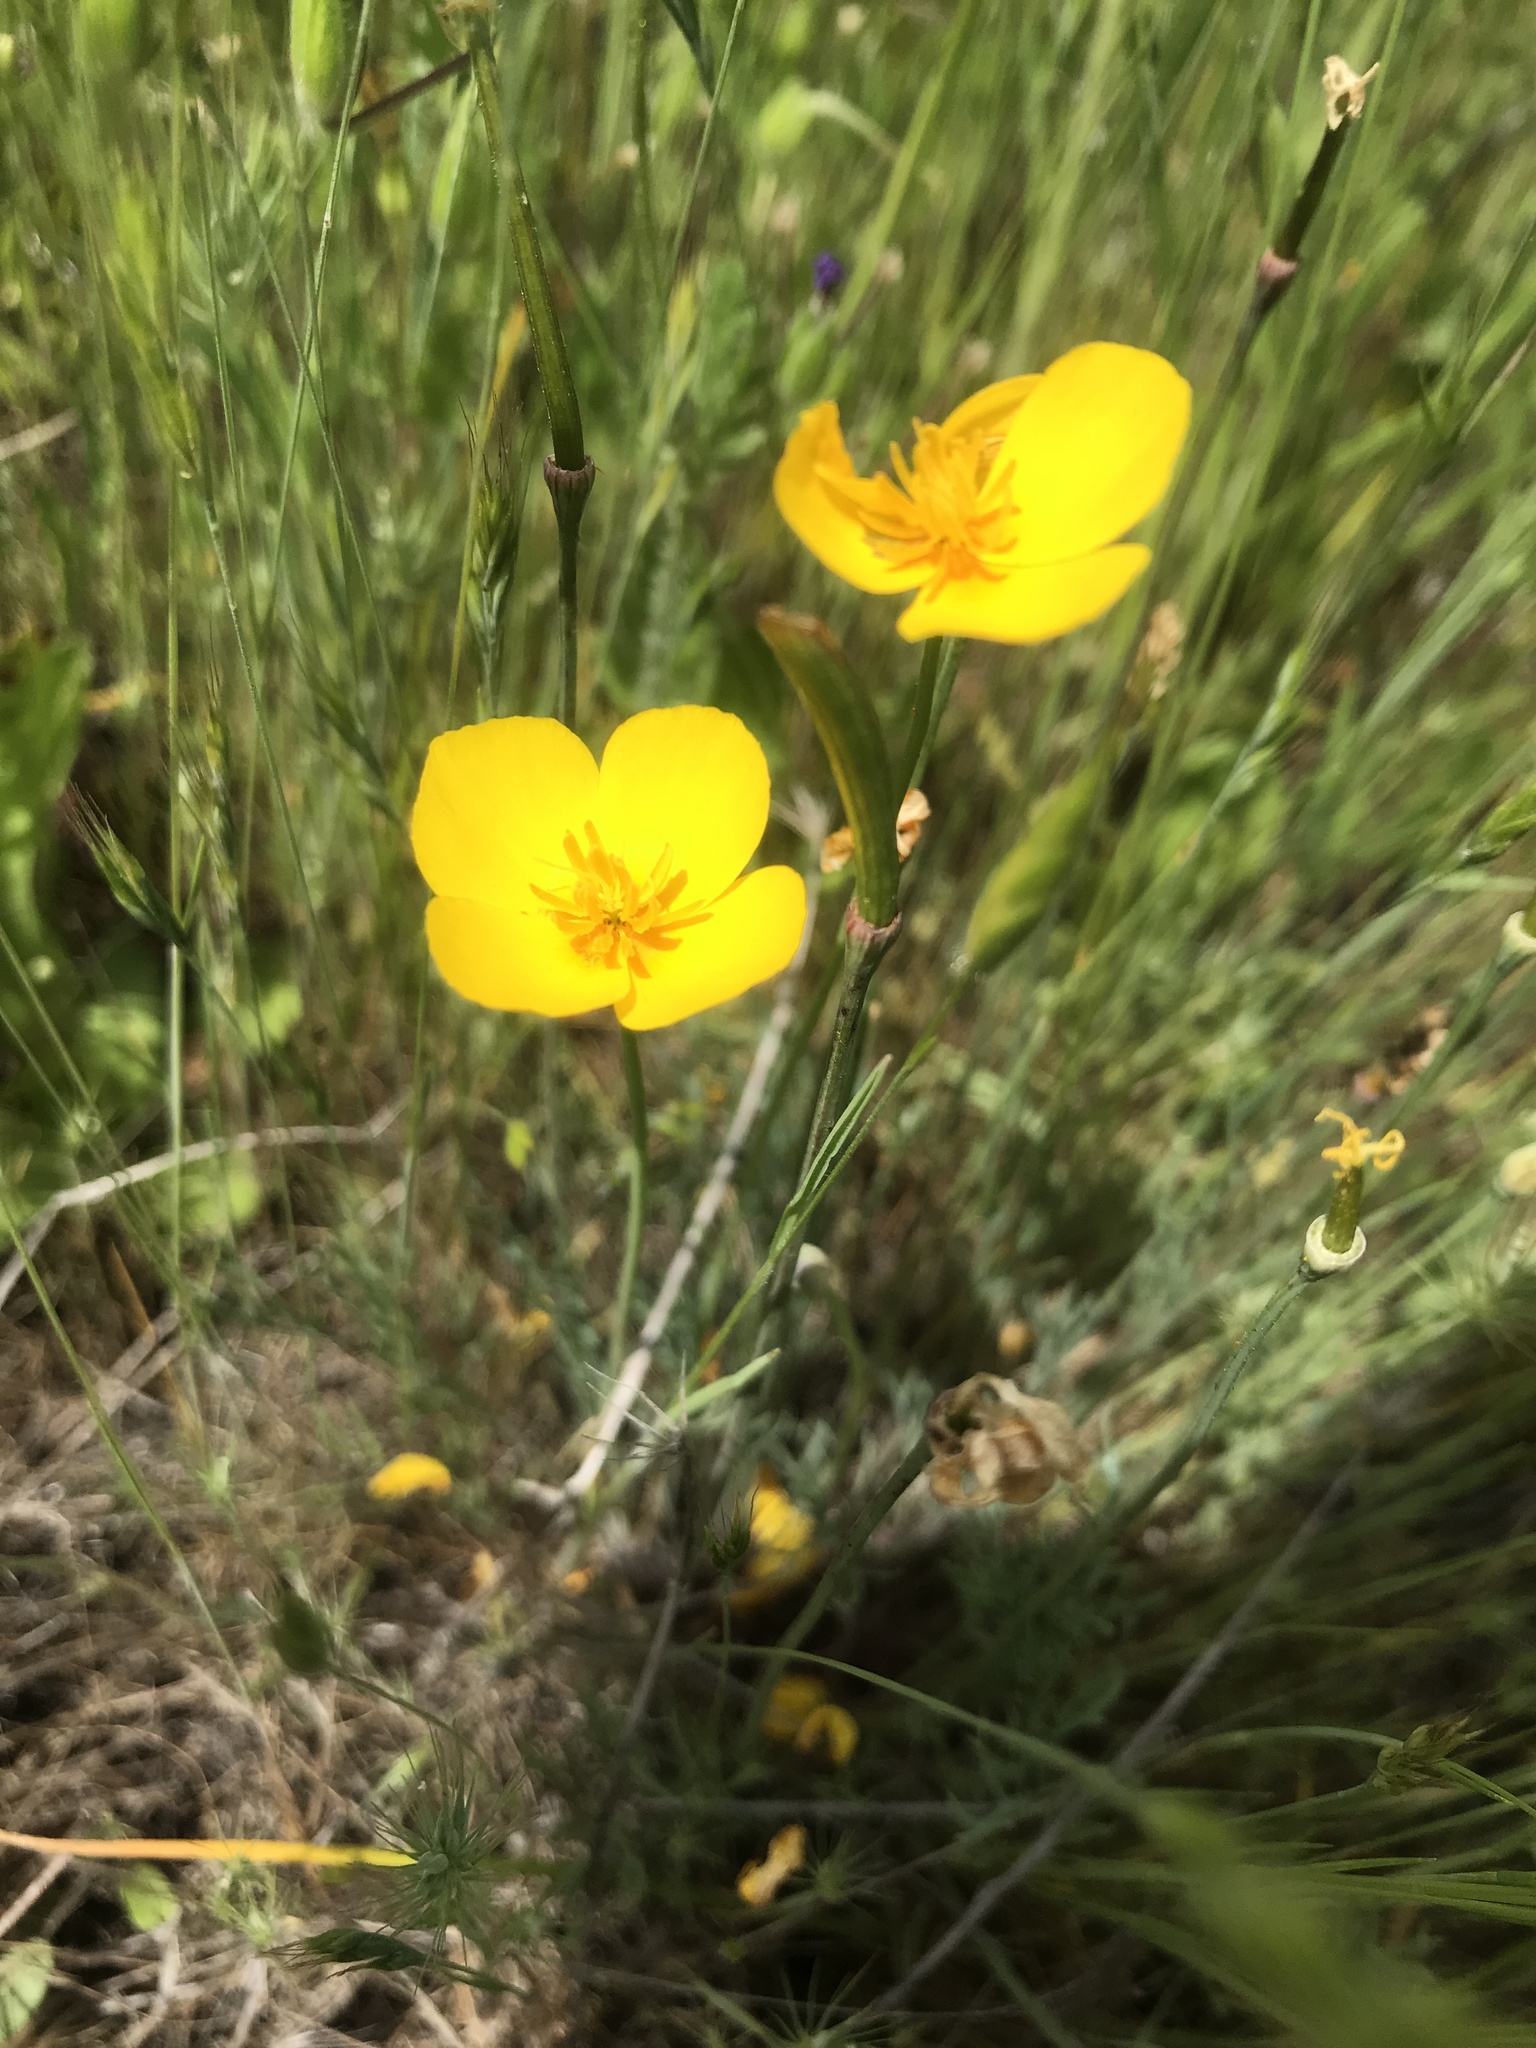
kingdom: Plantae
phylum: Tracheophyta
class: Magnoliopsida
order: Ranunculales
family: Papaveraceae
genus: Eschscholzia
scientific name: Eschscholzia lobbii
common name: Frying-pans
